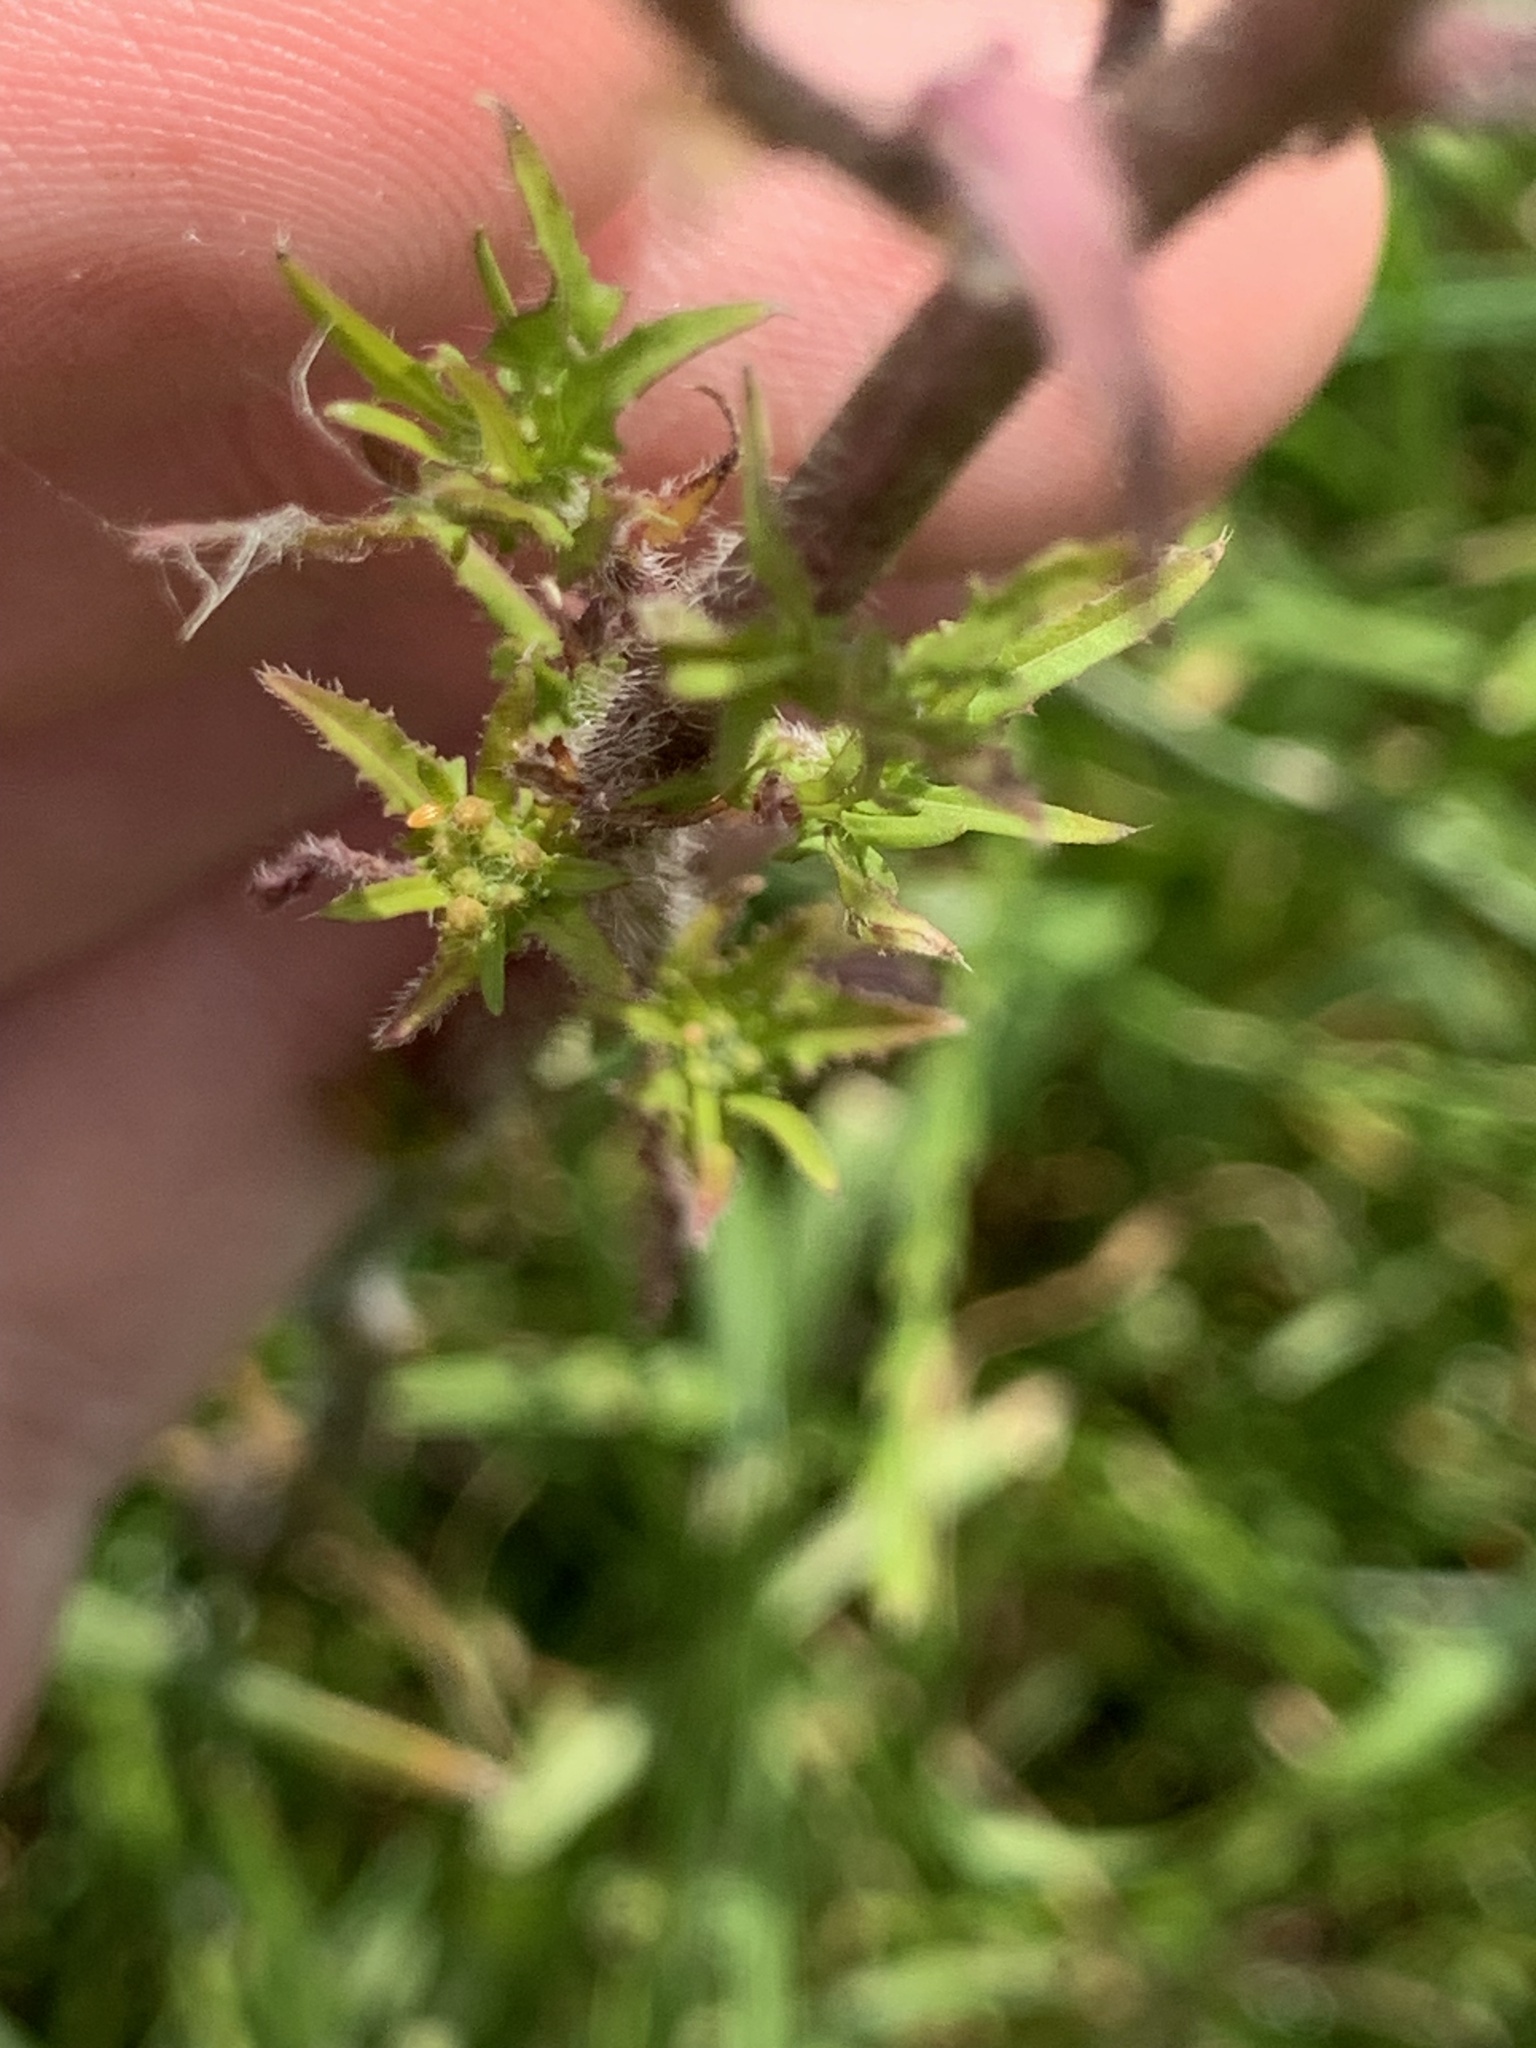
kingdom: Plantae
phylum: Tracheophyta
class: Magnoliopsida
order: Brassicales
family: Brassicaceae
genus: Sisymbrium
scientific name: Sisymbrium loeselii
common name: False london-rocket
